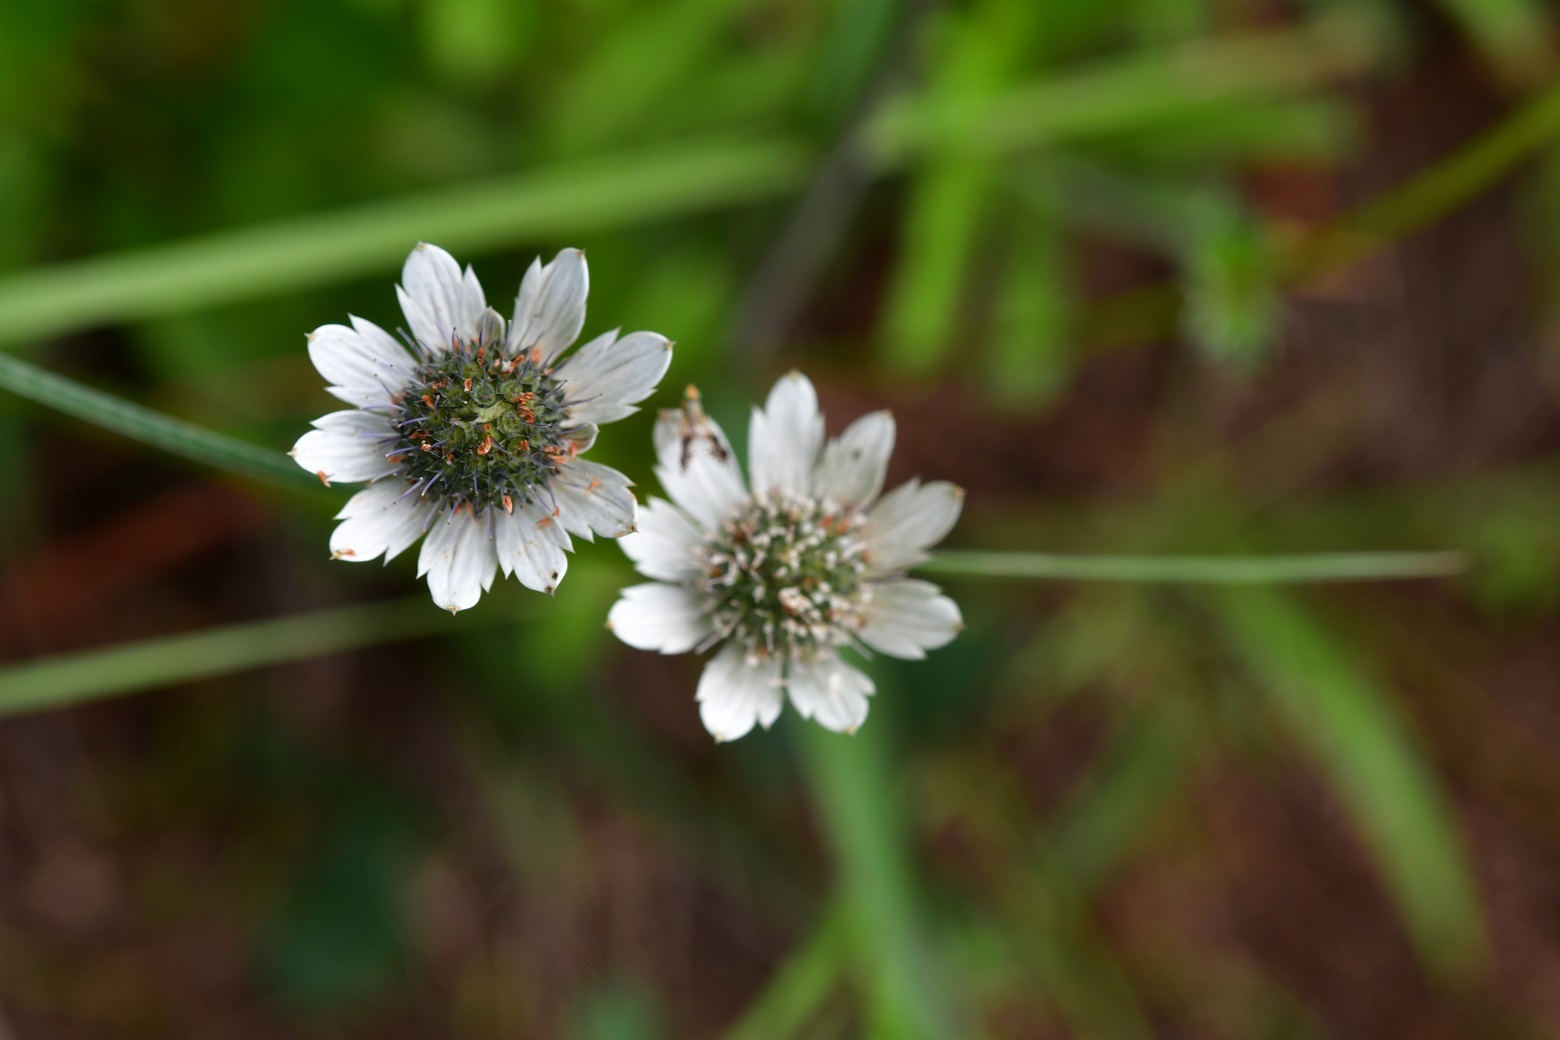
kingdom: Plantae
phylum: Tracheophyta
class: Magnoliopsida
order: Apiales
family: Apiaceae
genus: Eryngium
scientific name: Eryngium scaposum
